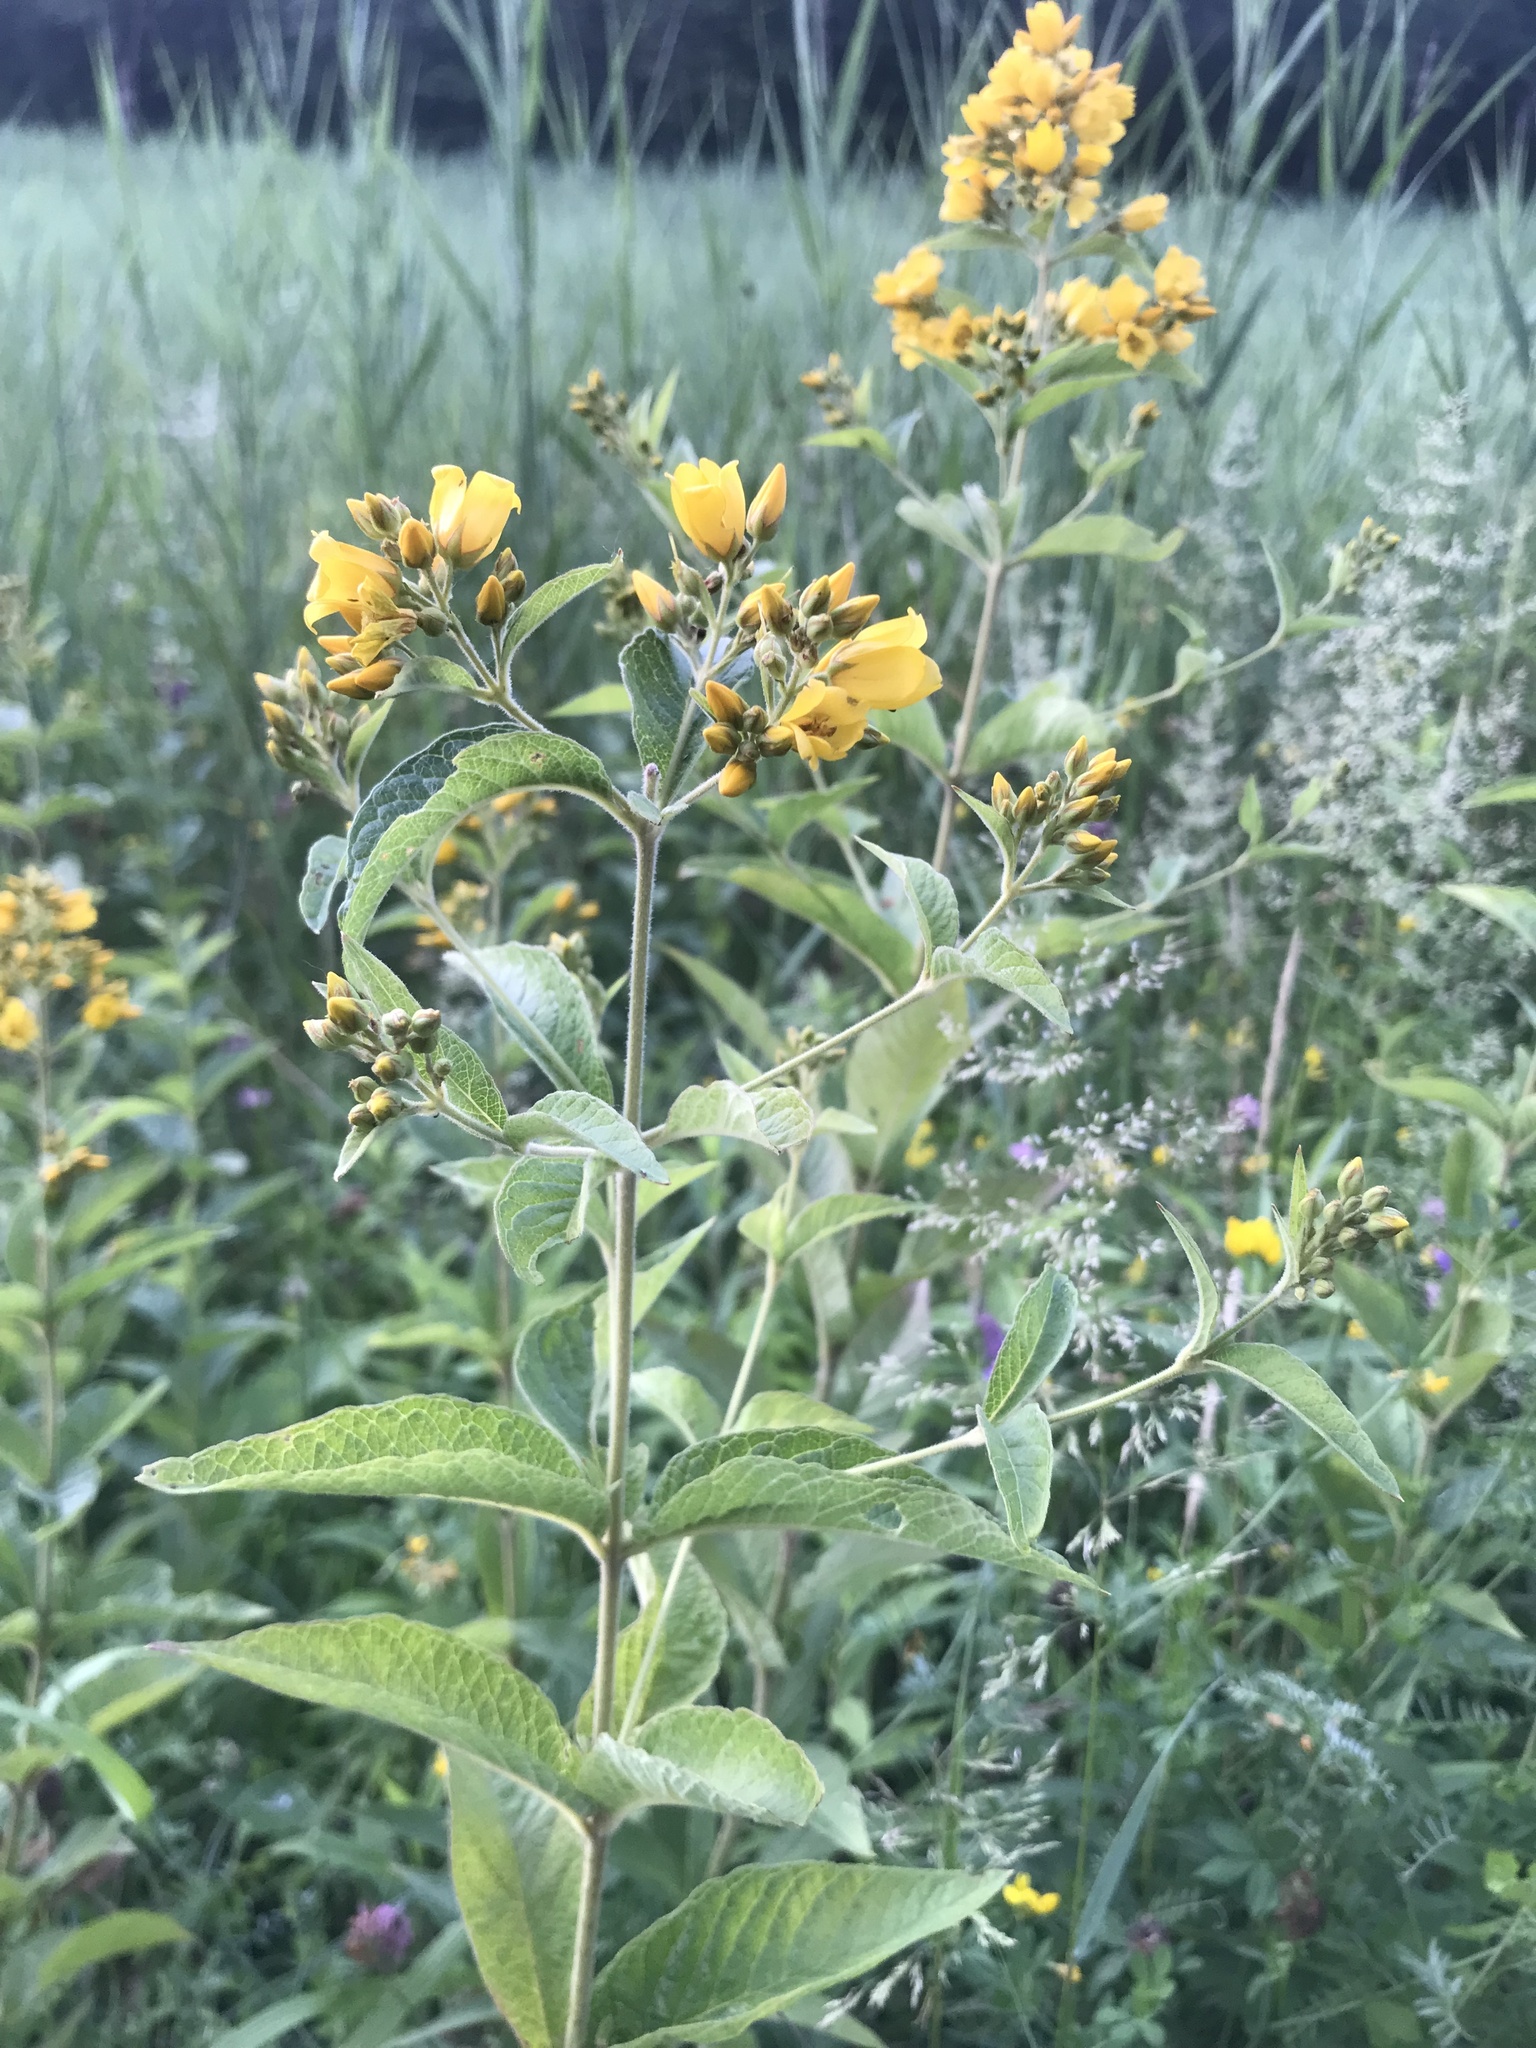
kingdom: Plantae
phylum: Tracheophyta
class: Magnoliopsida
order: Ericales
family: Primulaceae
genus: Lysimachia
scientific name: Lysimachia vulgaris
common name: Yellow loosestrife
